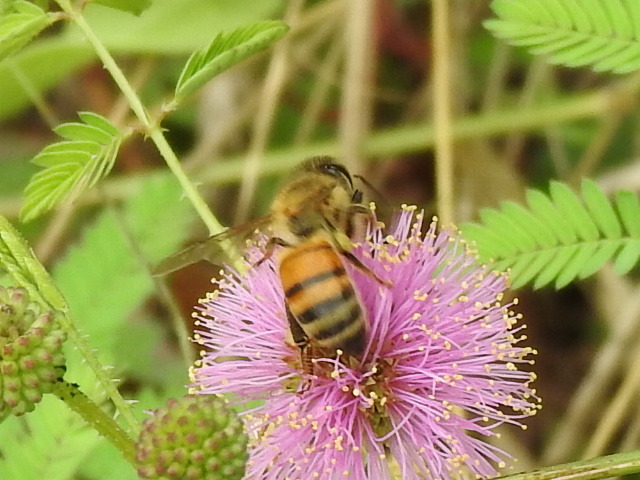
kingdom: Animalia
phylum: Arthropoda
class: Insecta
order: Hymenoptera
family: Apidae
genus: Apis
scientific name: Apis mellifera
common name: Honey bee
